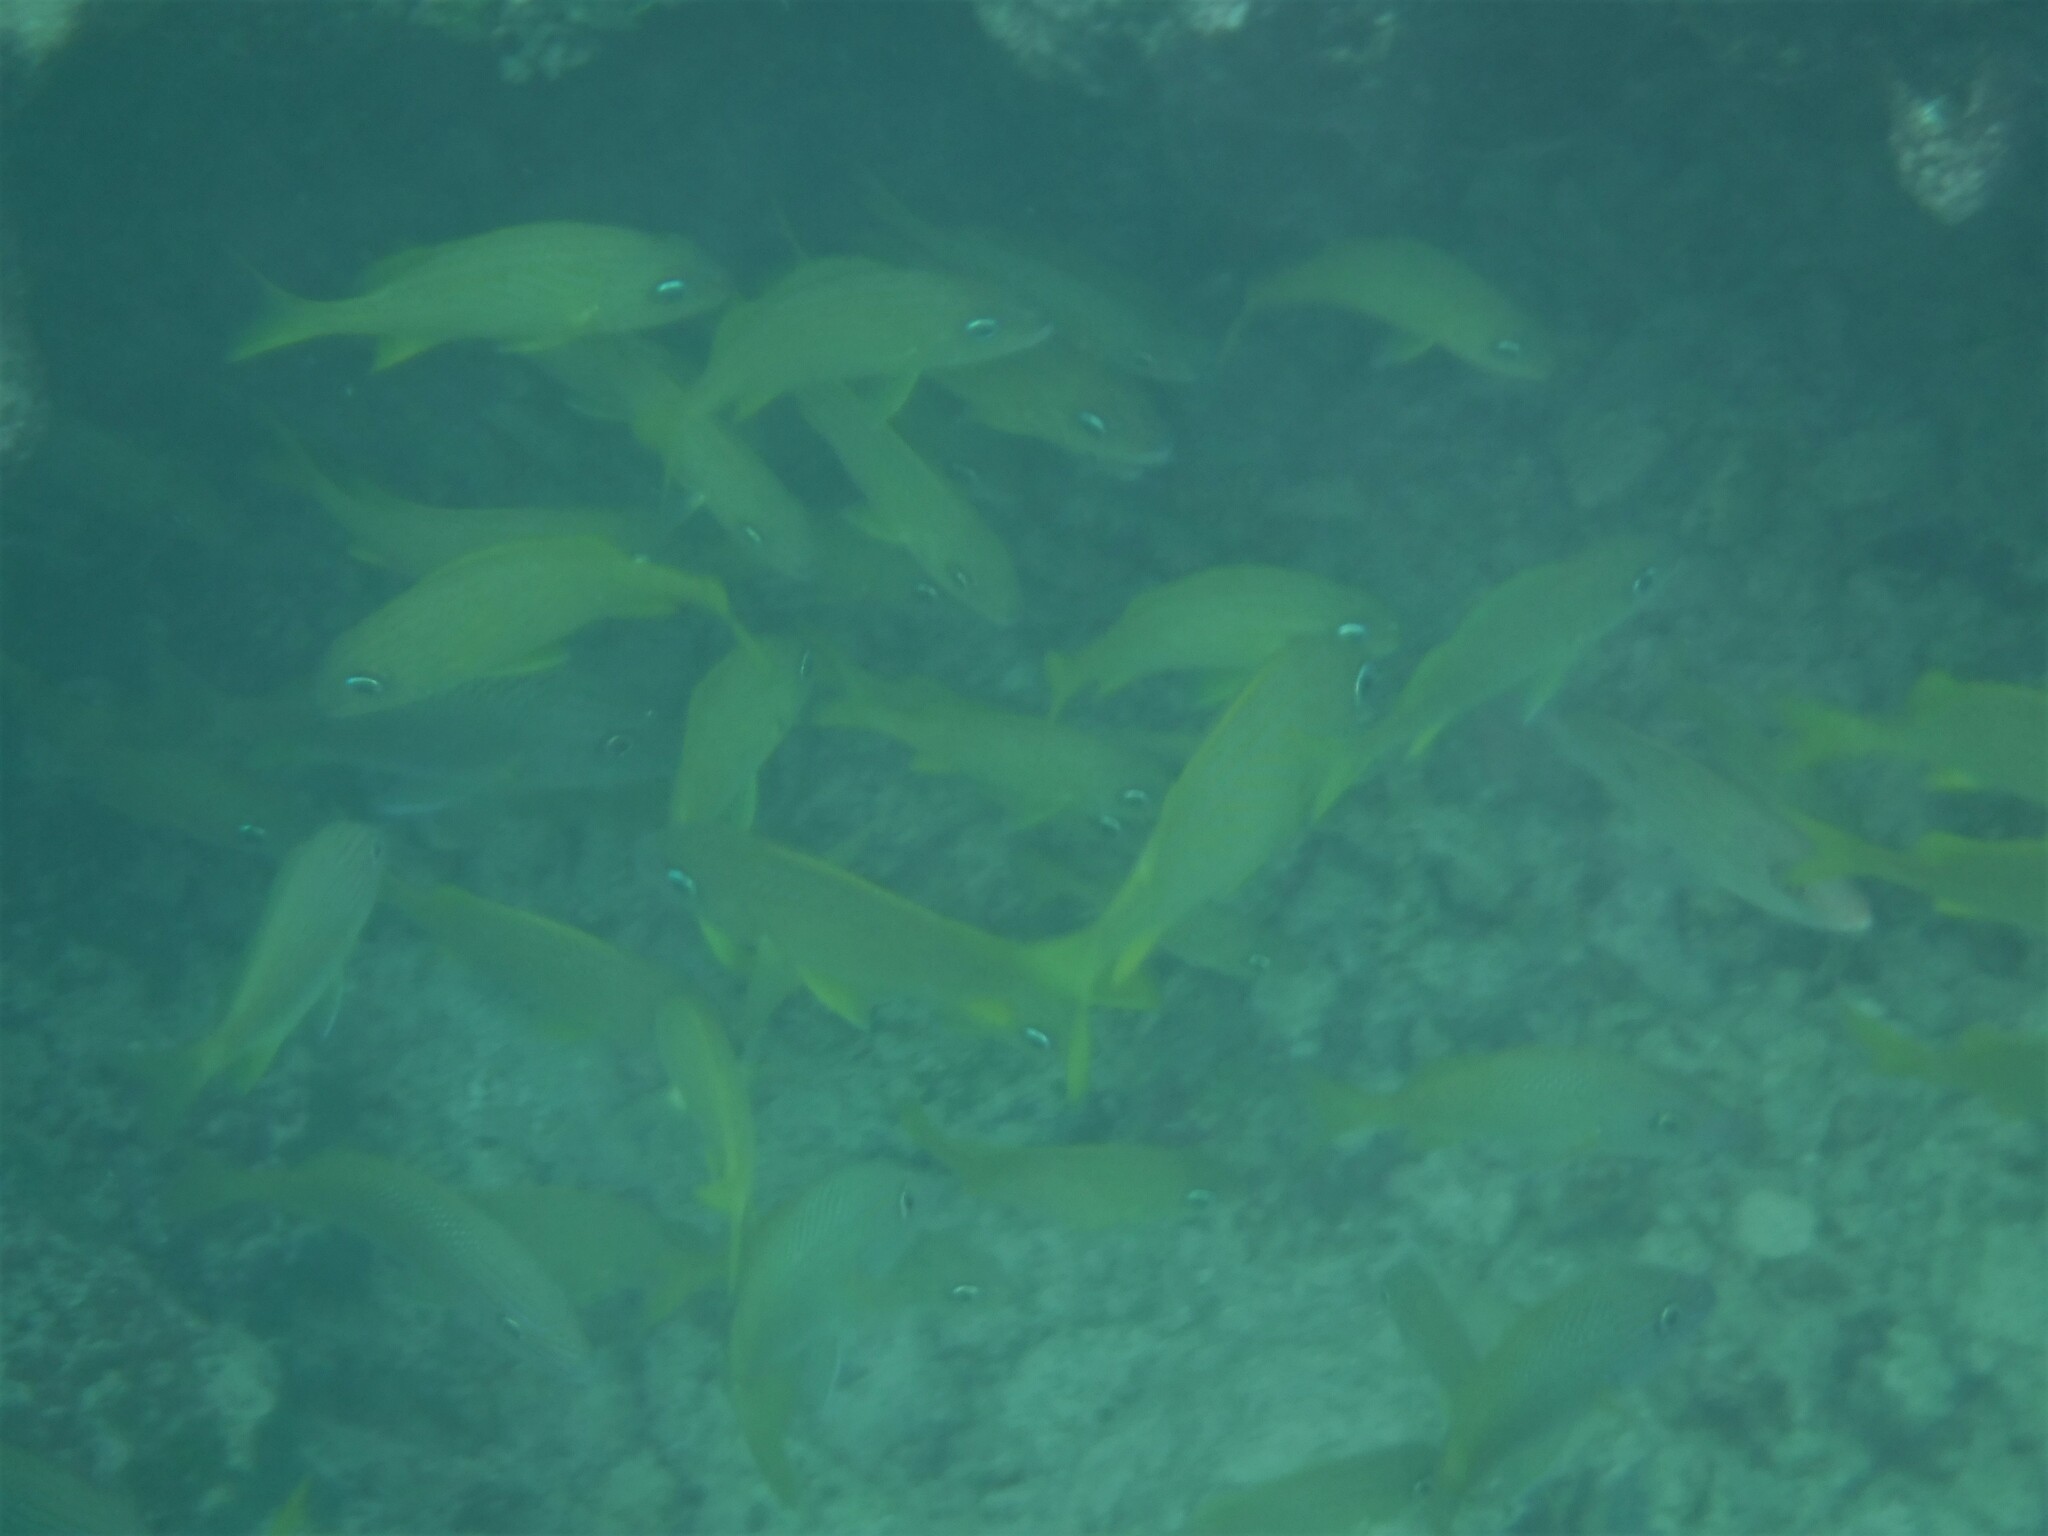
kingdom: Animalia
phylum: Chordata
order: Perciformes
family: Haemulidae
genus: Haemulon
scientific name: Haemulon flavolineatum
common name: French grunt
